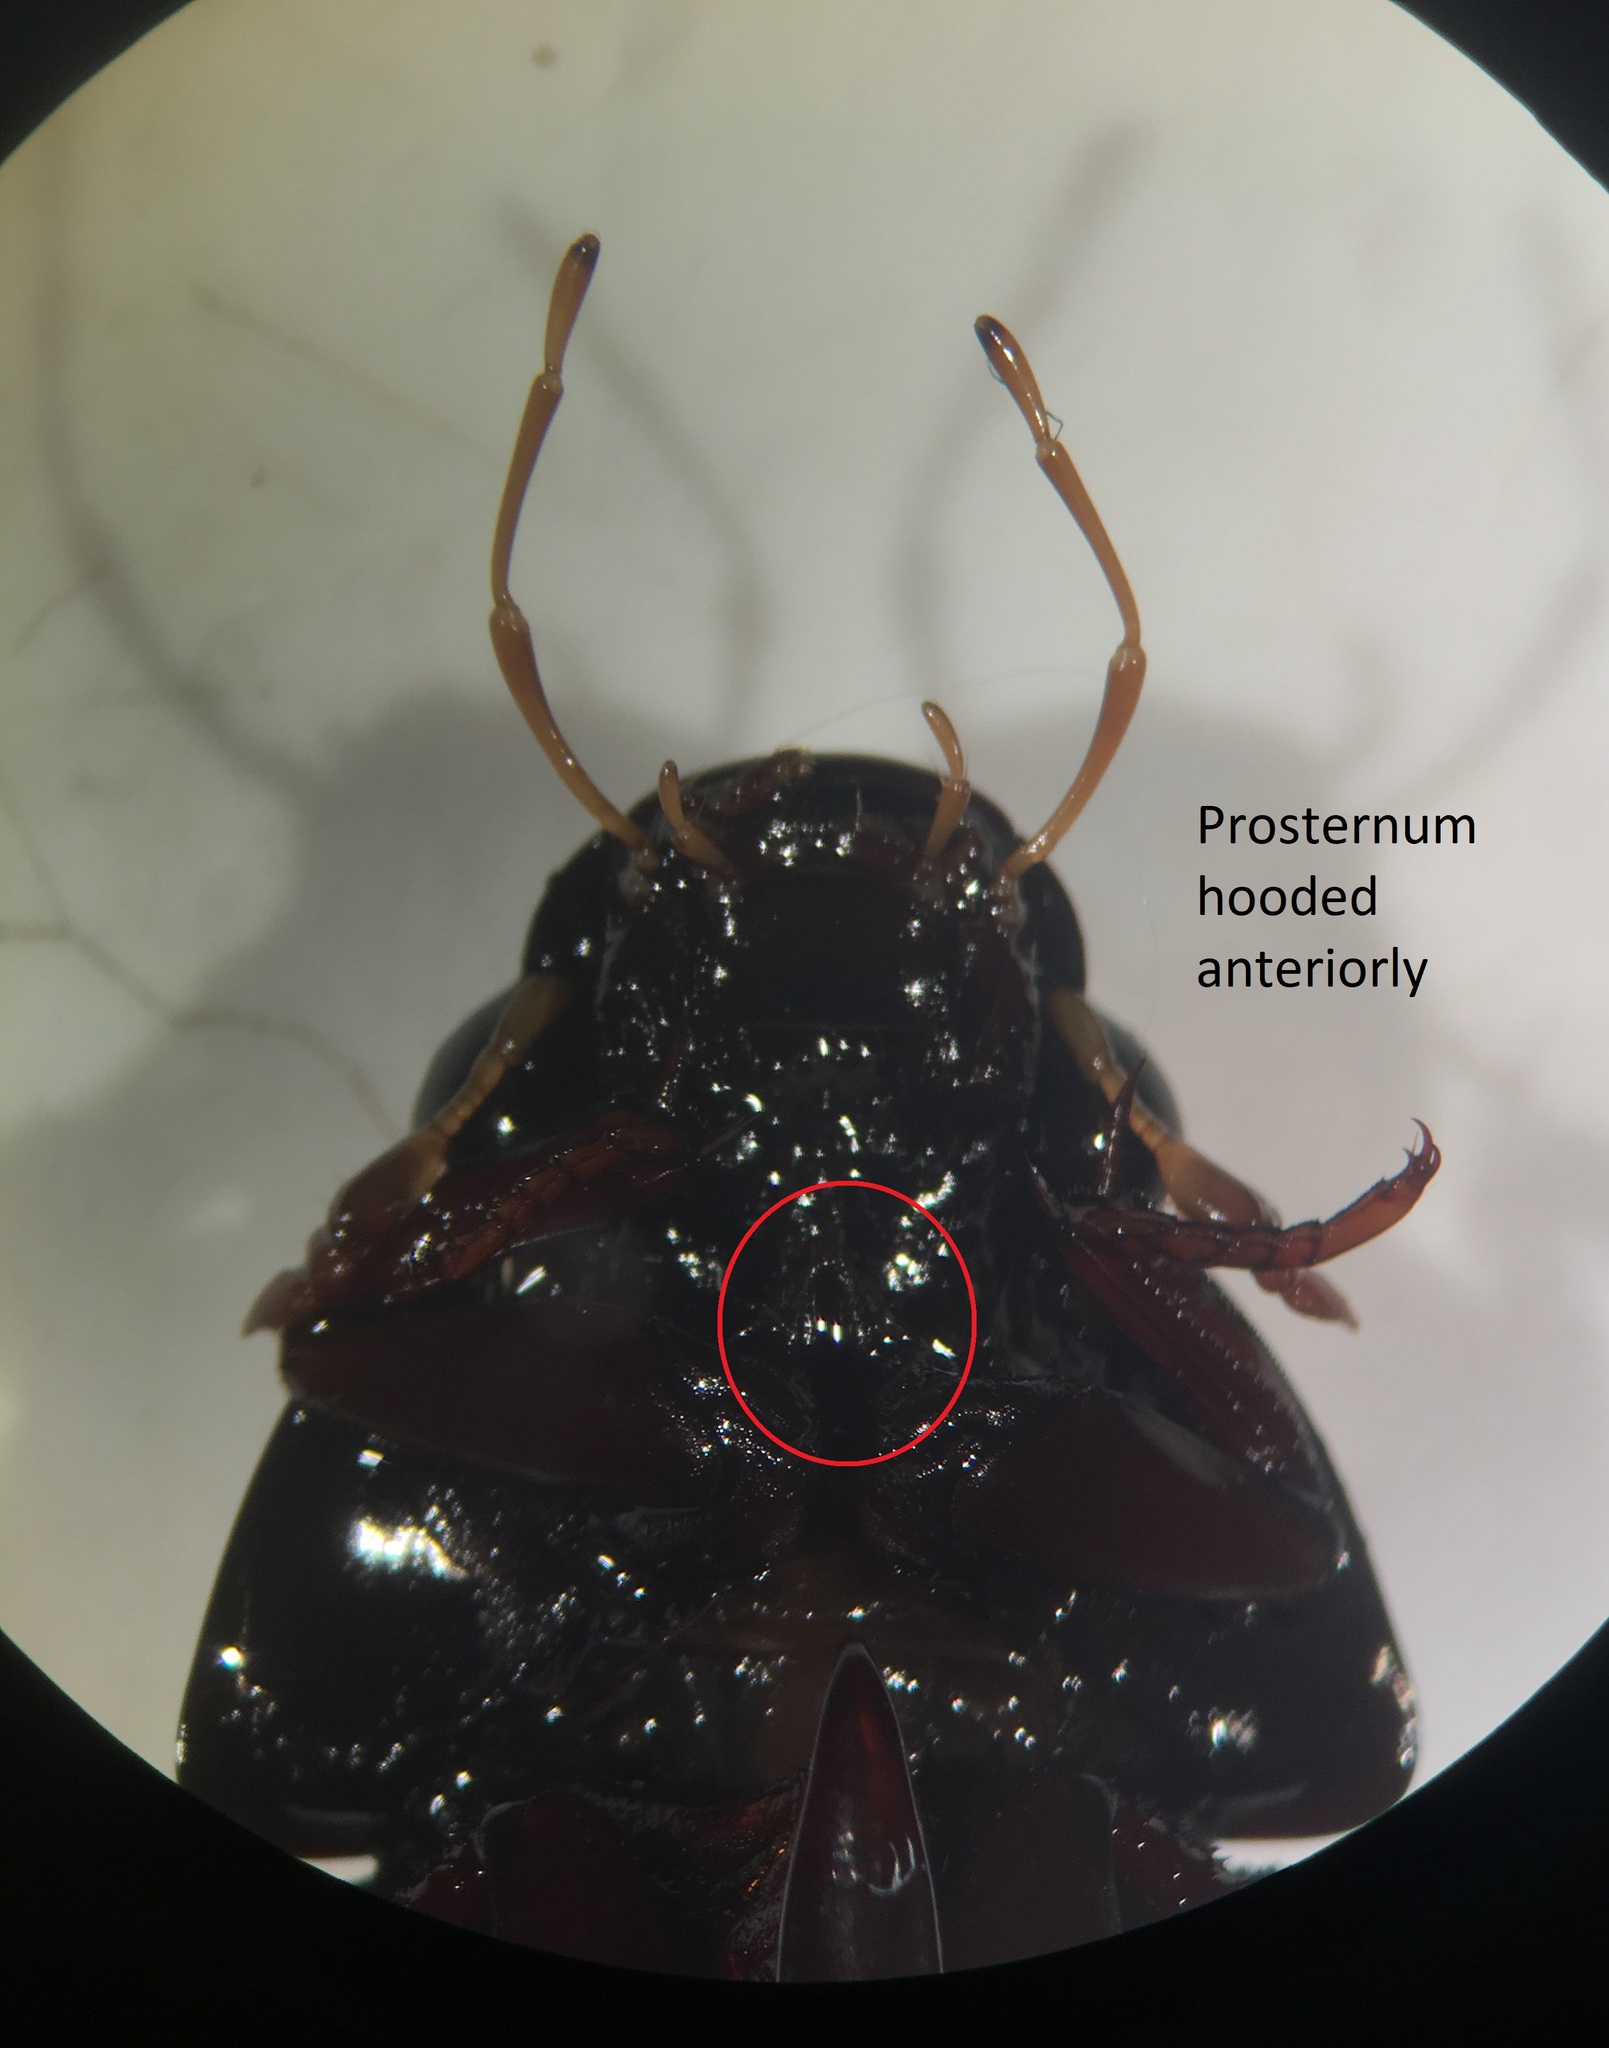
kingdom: Animalia
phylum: Arthropoda
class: Insecta
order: Coleoptera
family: Hydrophilidae
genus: Hydrophilus
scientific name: Hydrophilus triangularis
